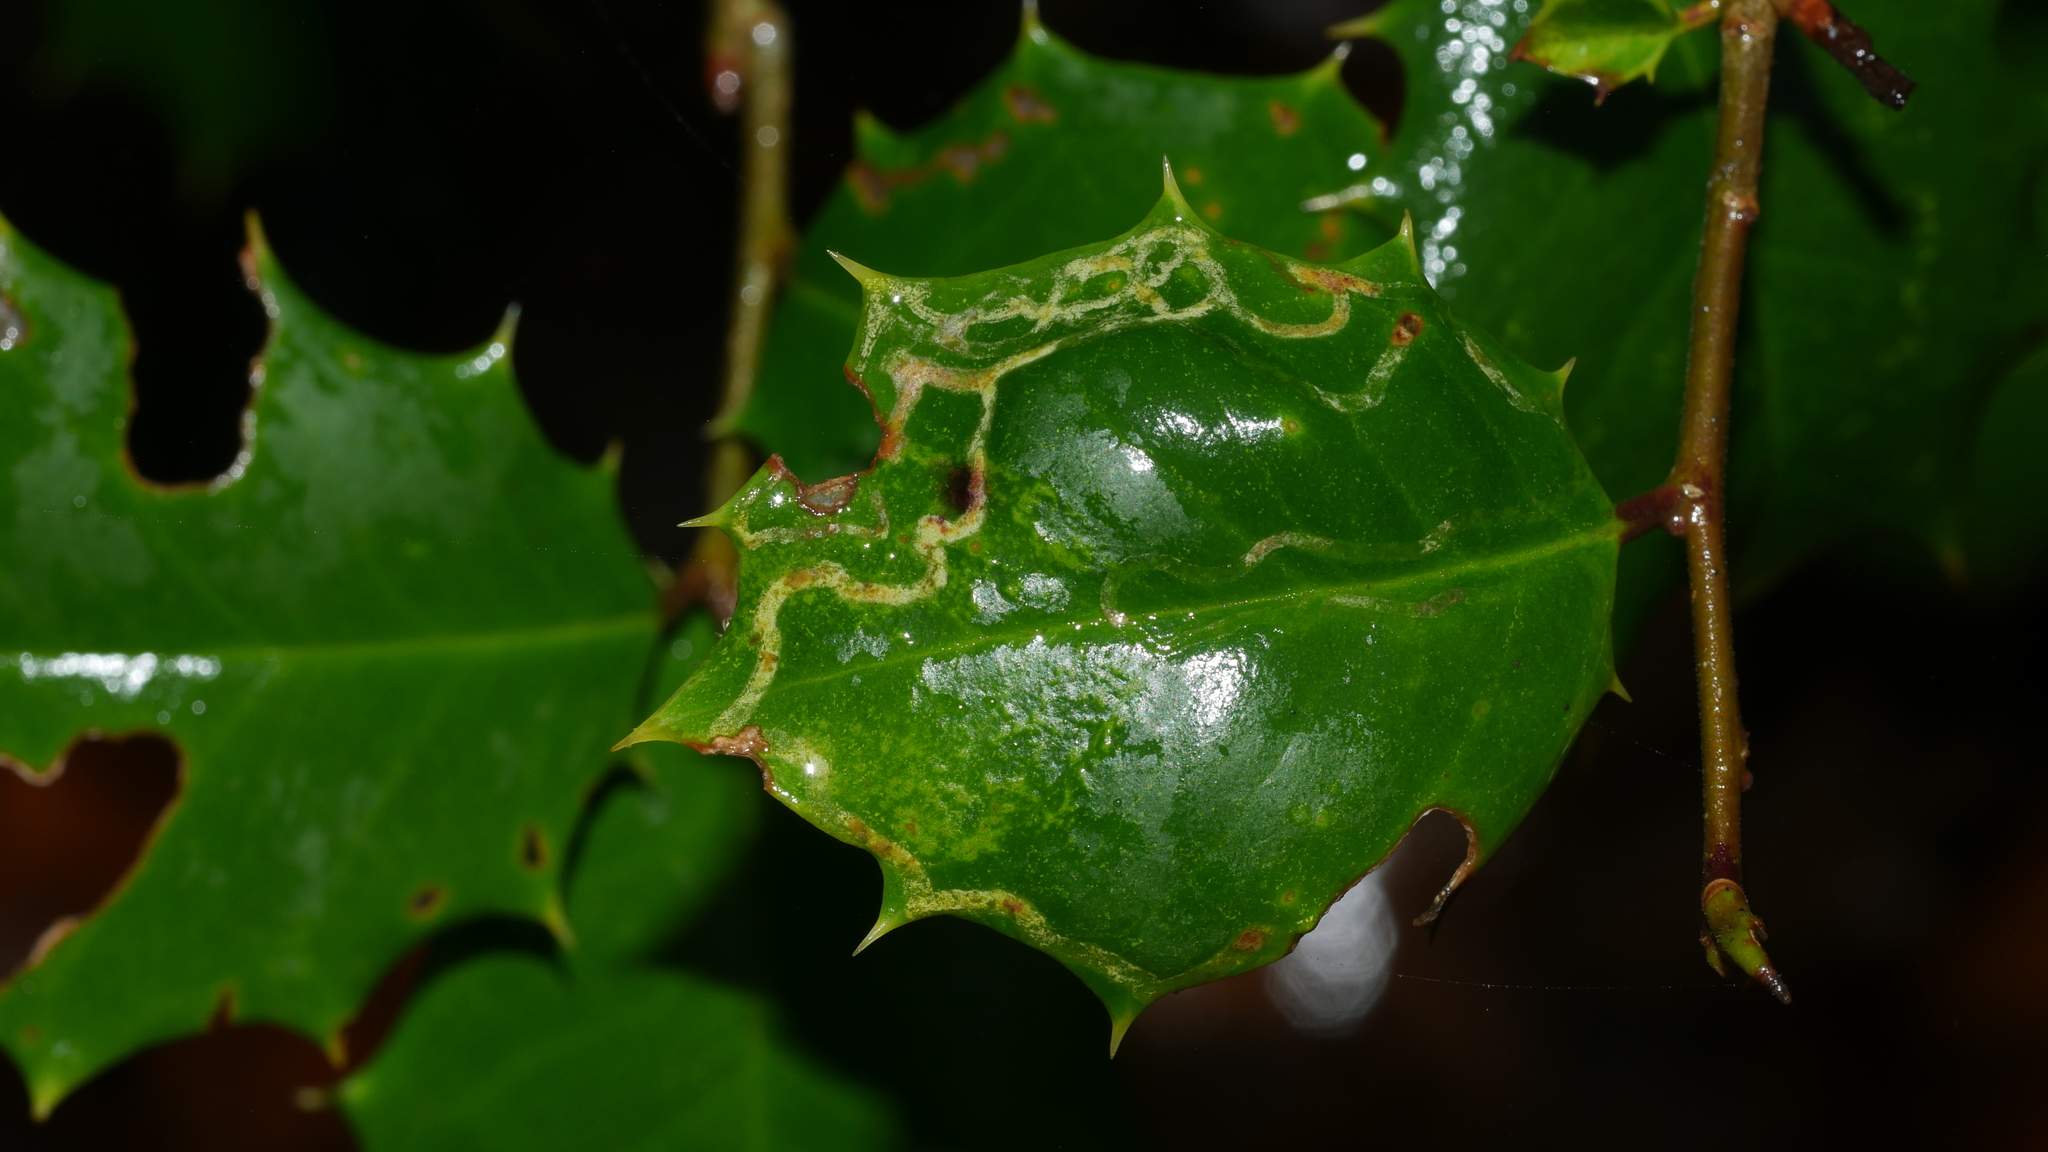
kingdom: Animalia
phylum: Arthropoda
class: Insecta
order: Diptera
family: Agromyzidae
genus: Phytomyza
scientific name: Phytomyza opacae
